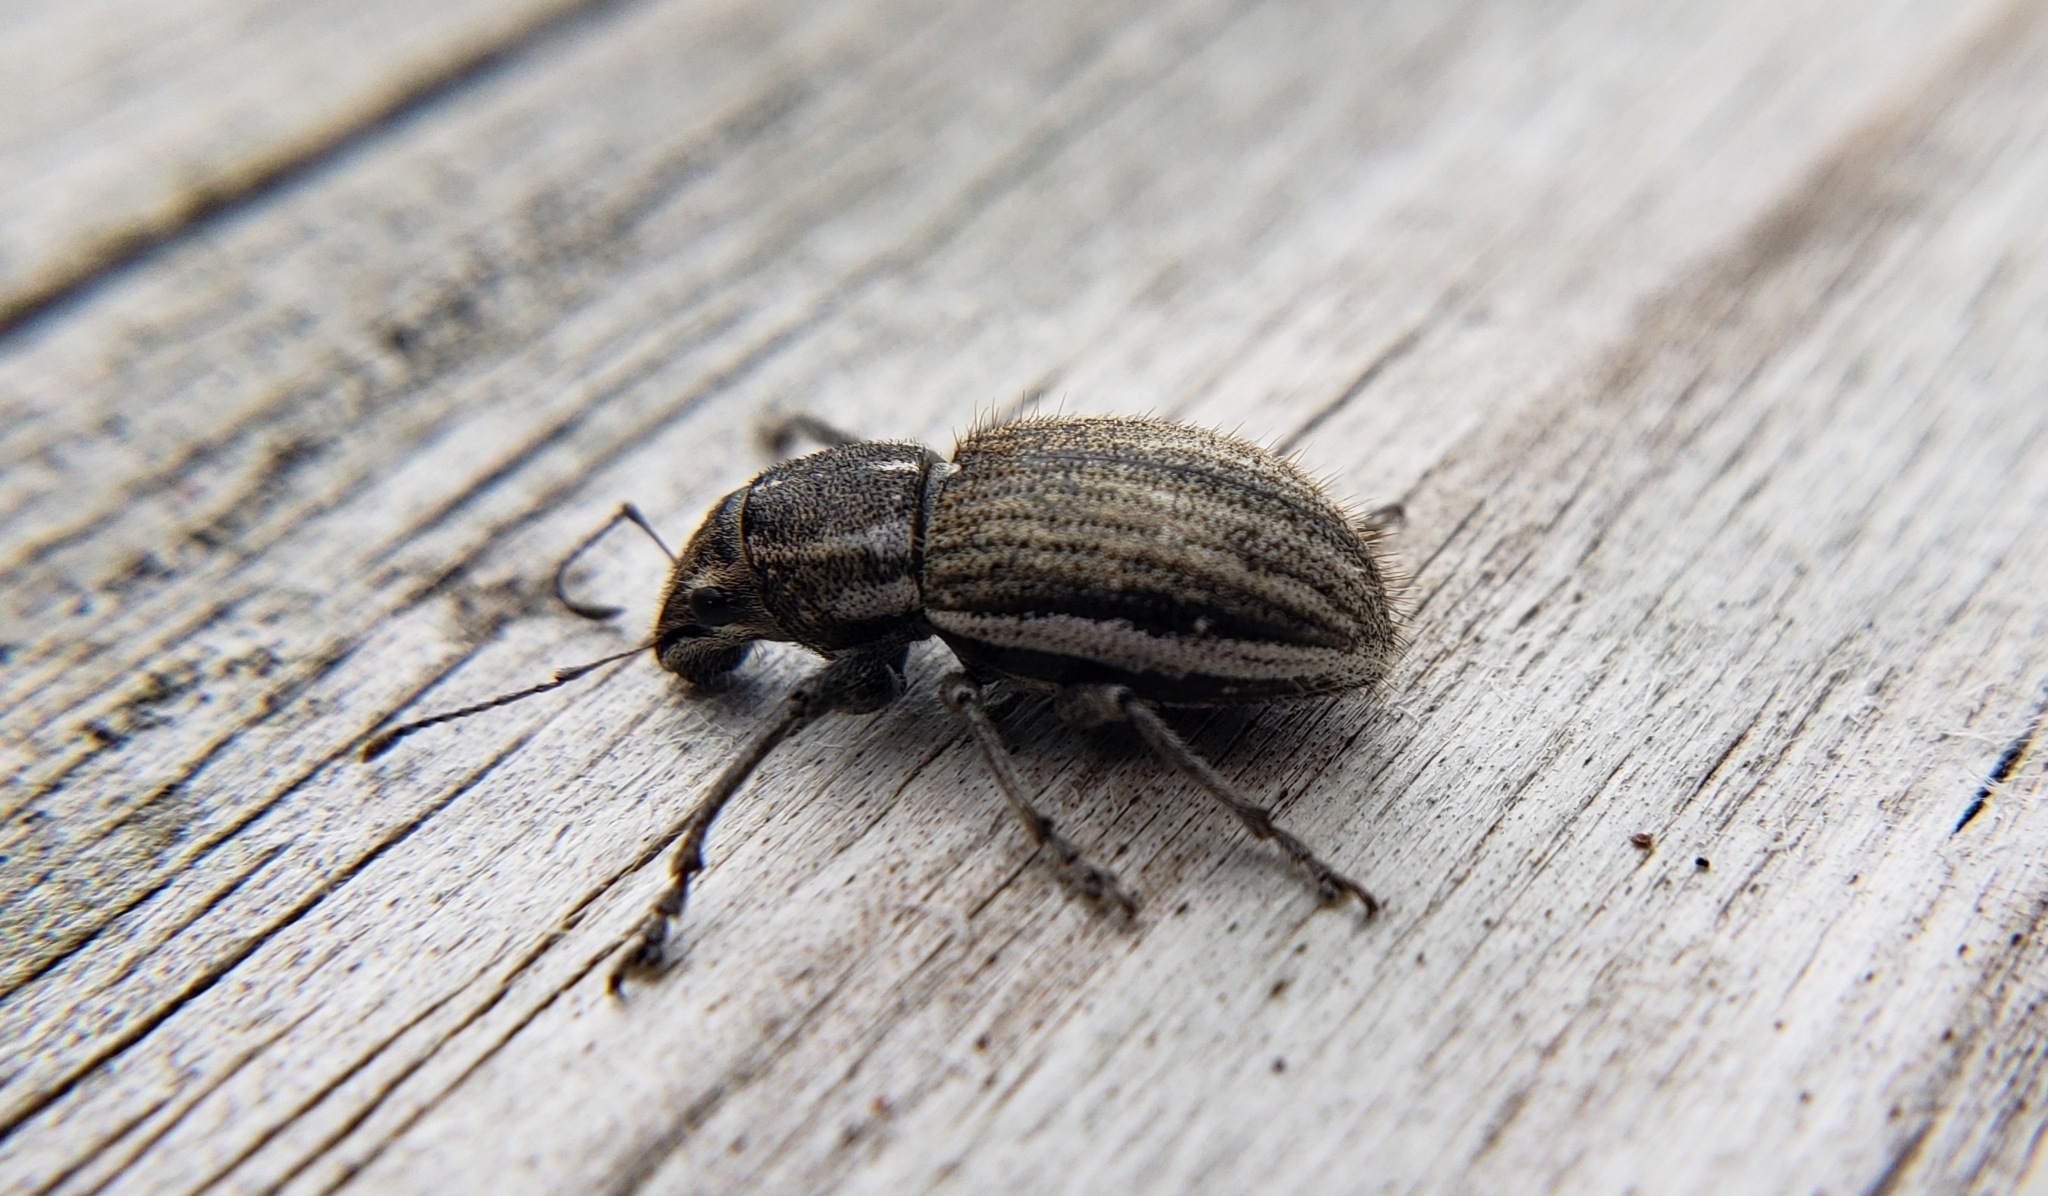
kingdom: Animalia
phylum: Arthropoda
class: Insecta
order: Coleoptera
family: Curculionidae
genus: Naupactus
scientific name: Naupactus leucoloma
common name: Whitefringed beetle
